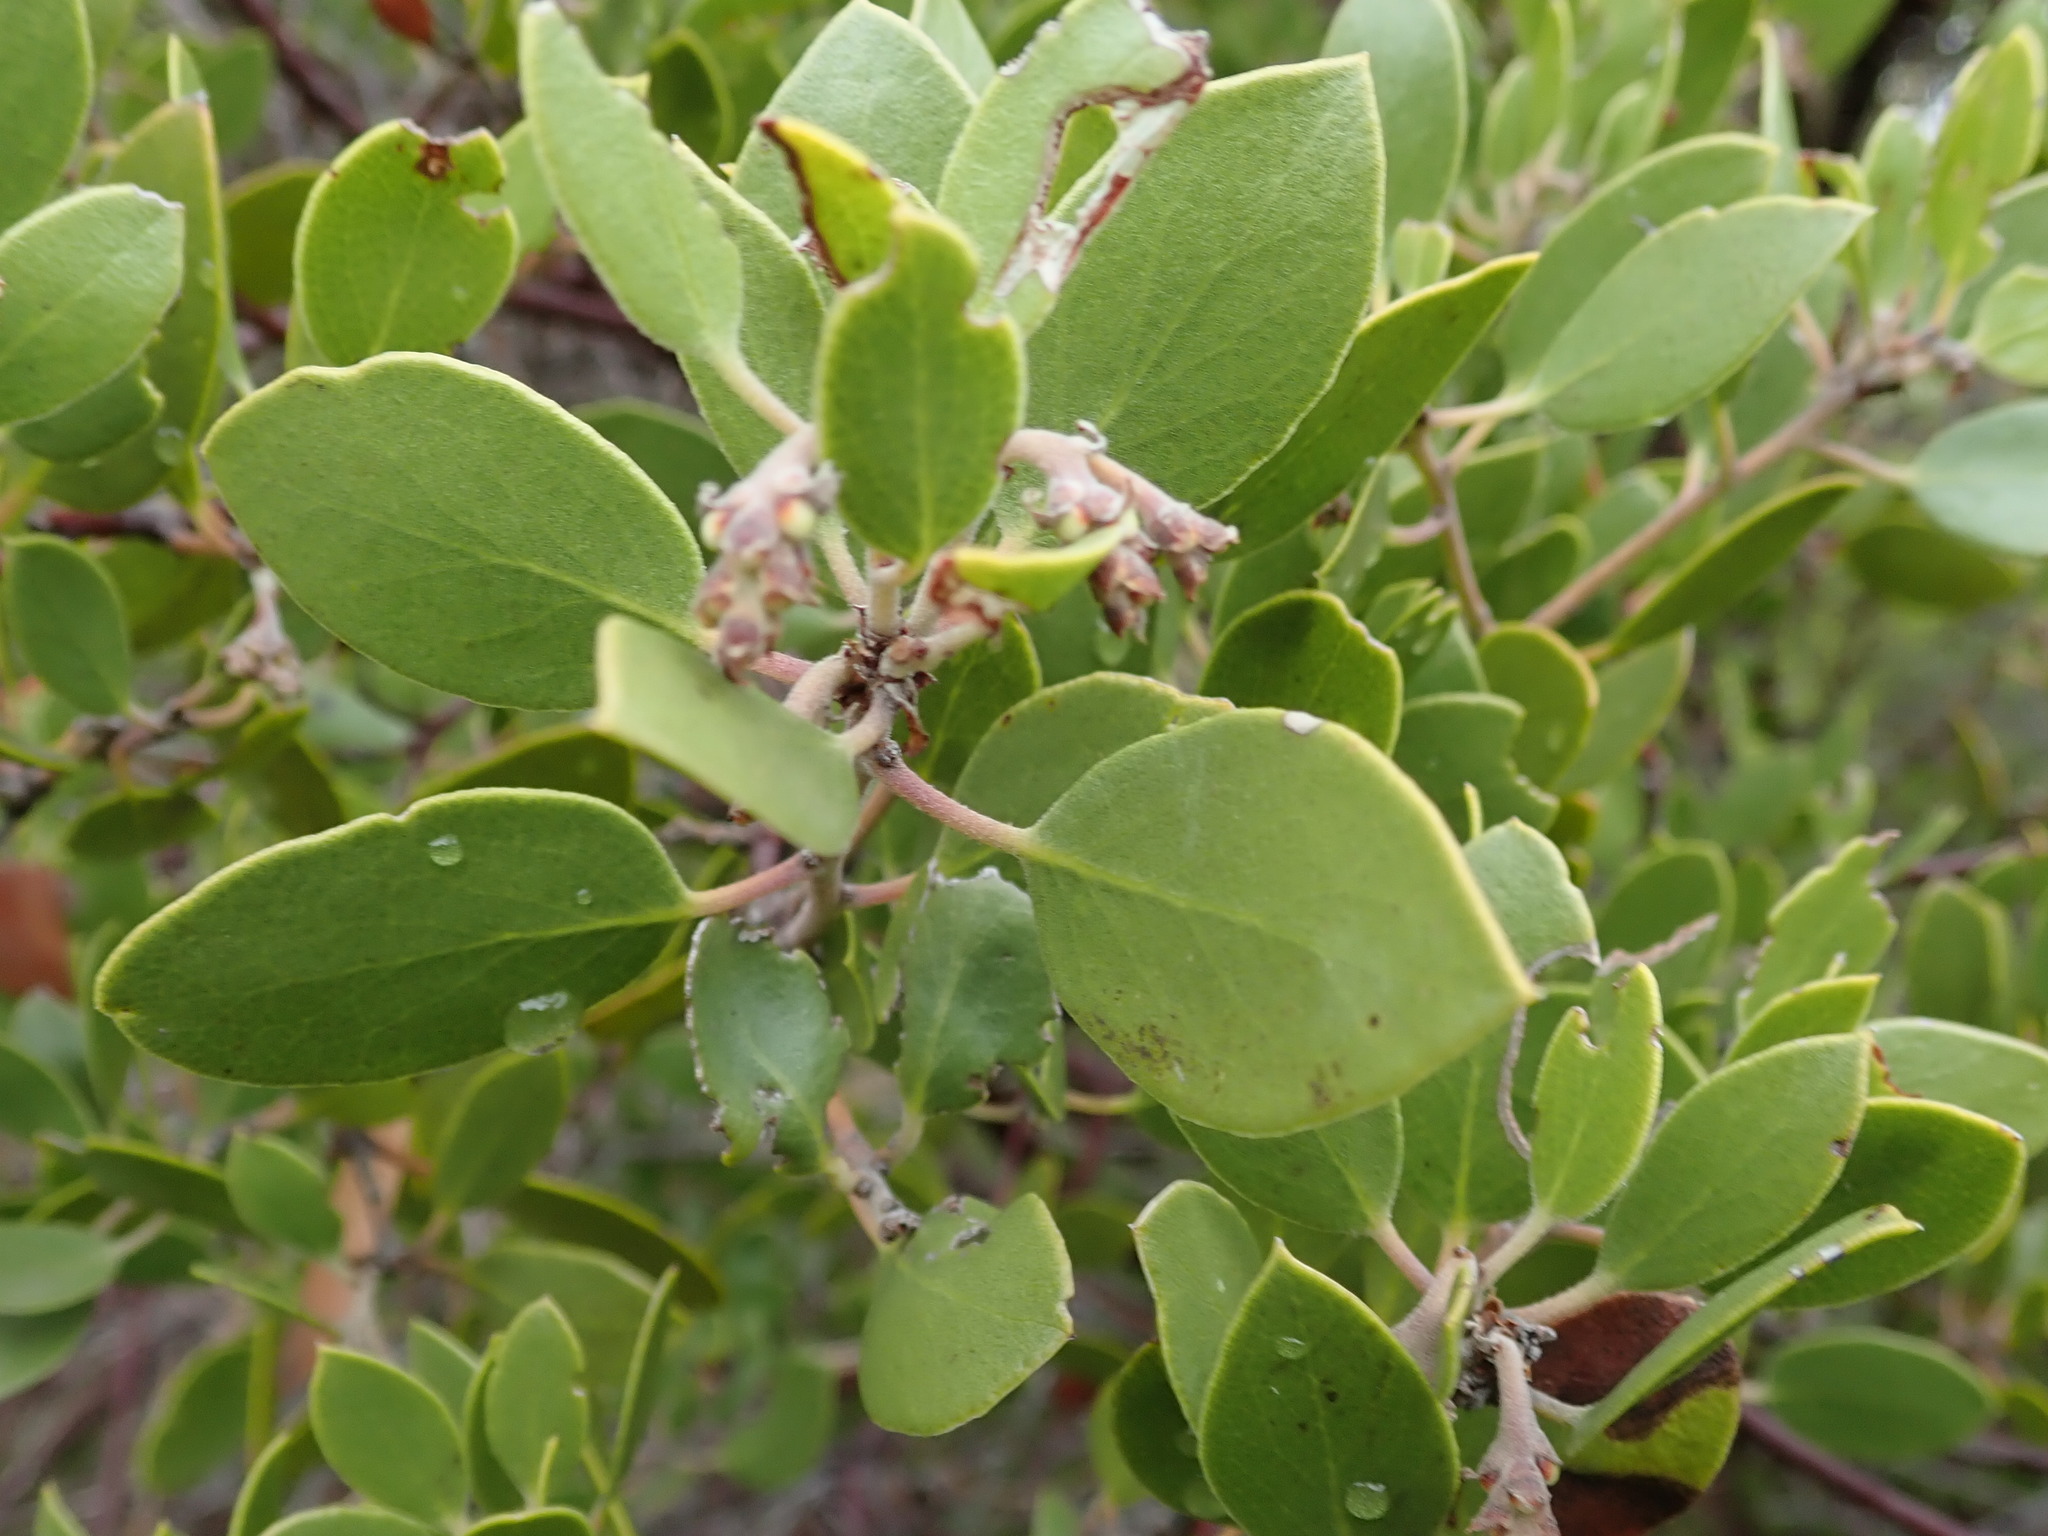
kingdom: Plantae
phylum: Tracheophyta
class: Magnoliopsida
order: Ericales
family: Ericaceae
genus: Arctostaphylos
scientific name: Arctostaphylos manzanita
